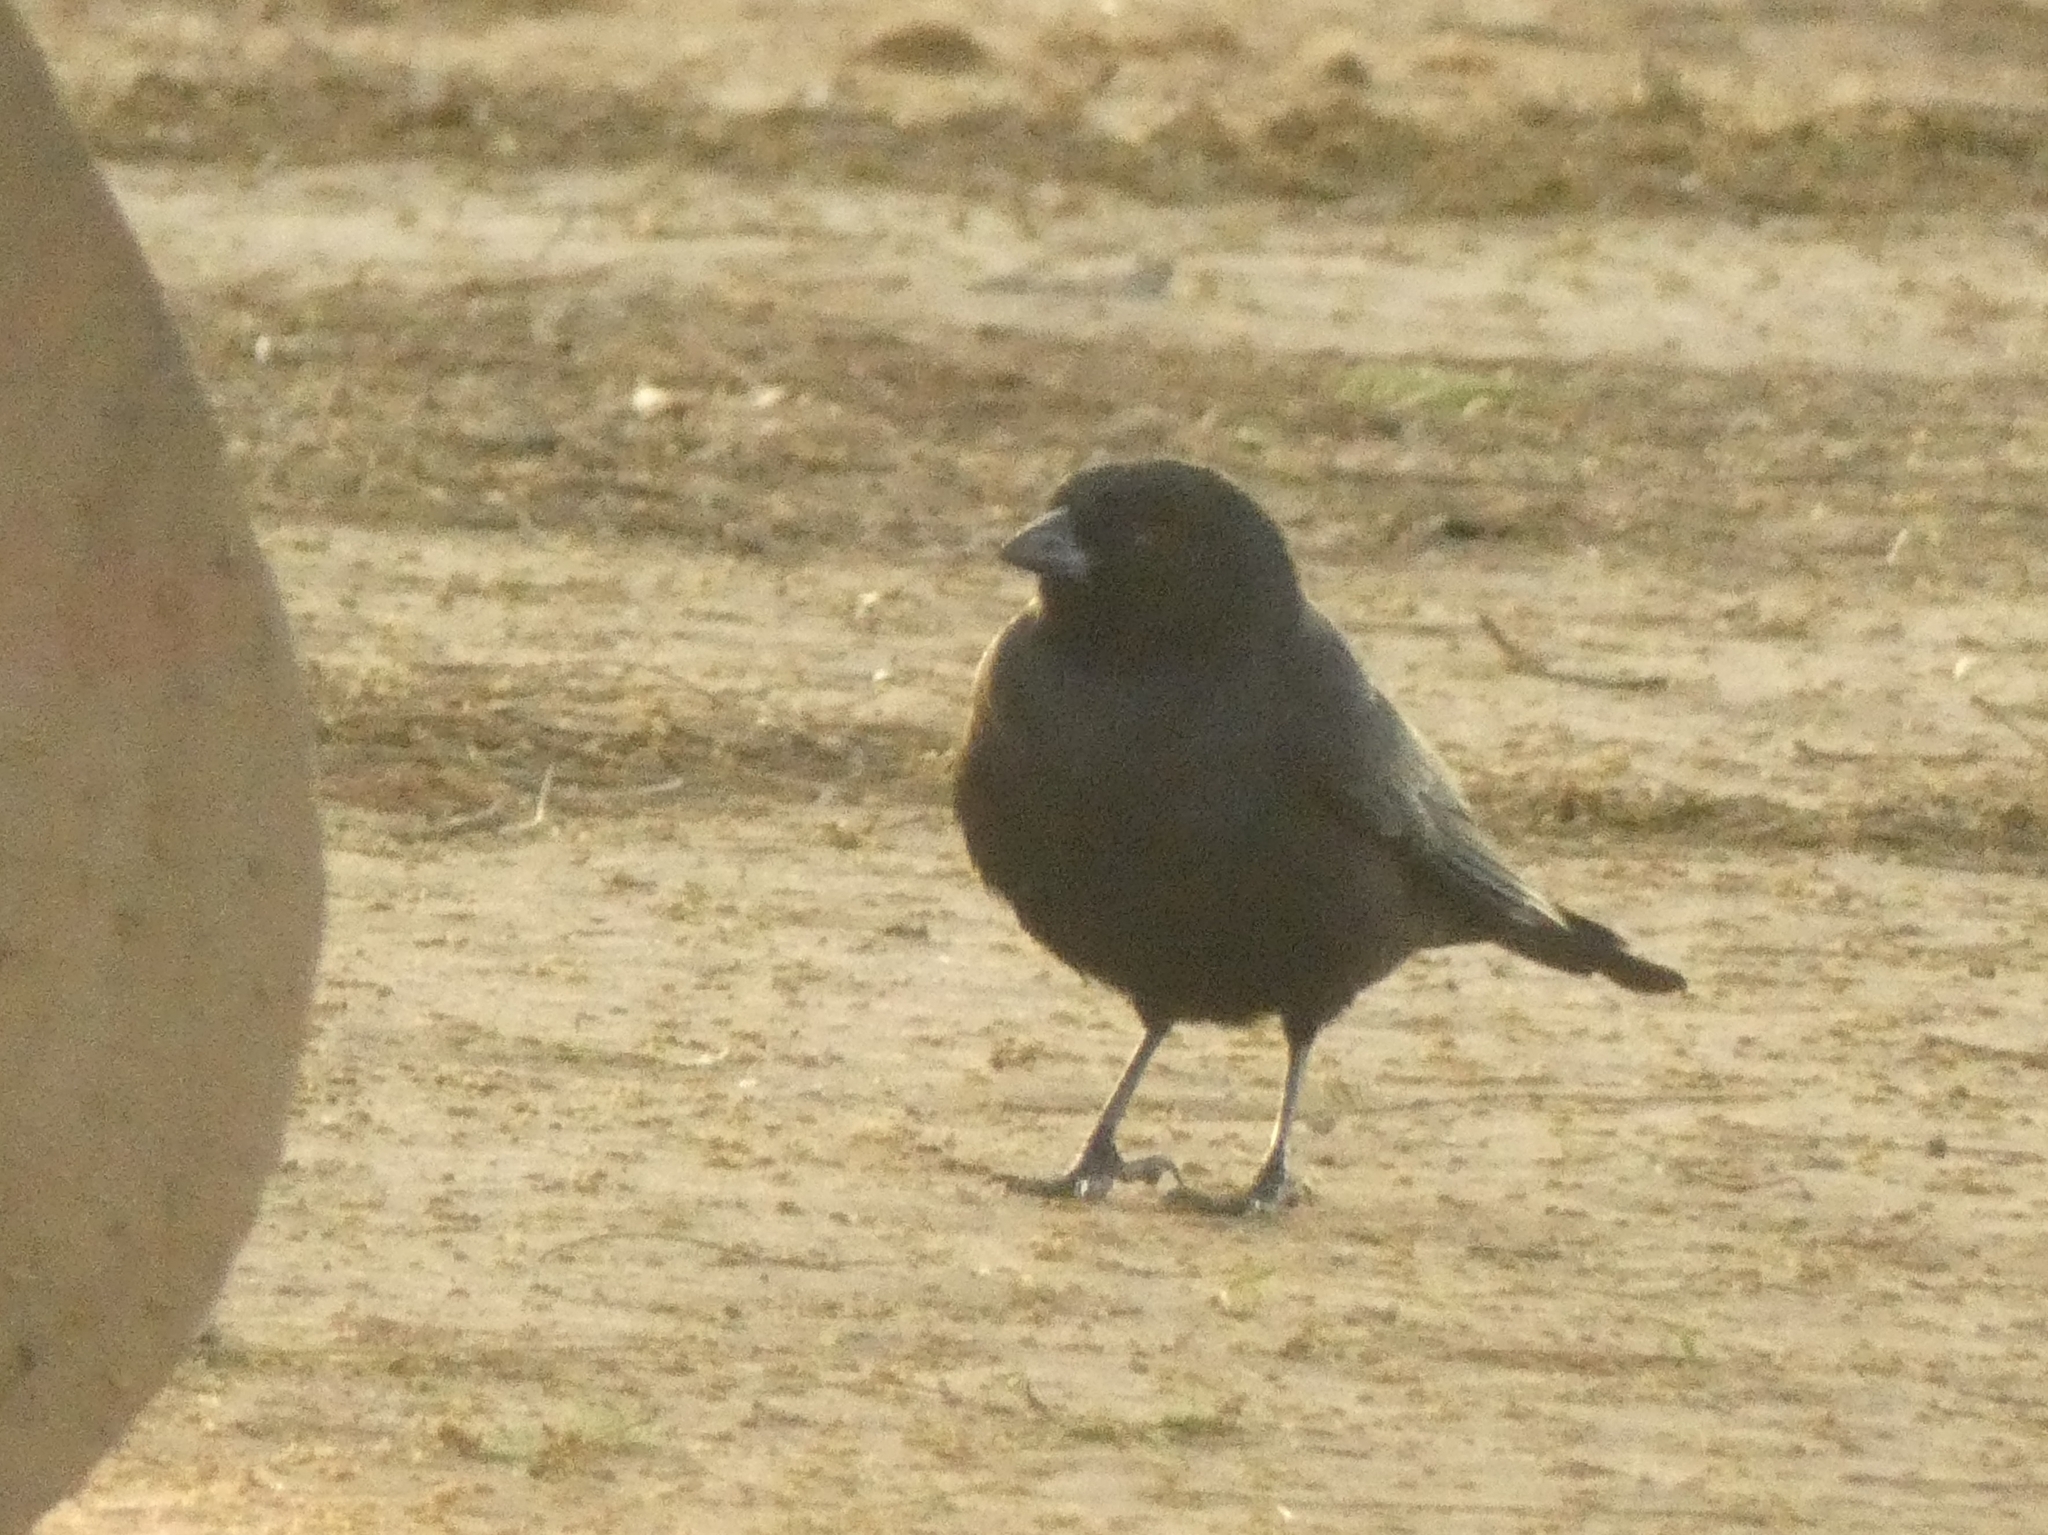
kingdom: Animalia
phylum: Chordata
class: Aves
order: Passeriformes
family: Icteridae
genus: Molothrus
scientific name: Molothrus rufoaxillaris
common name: Screaming cowbird
